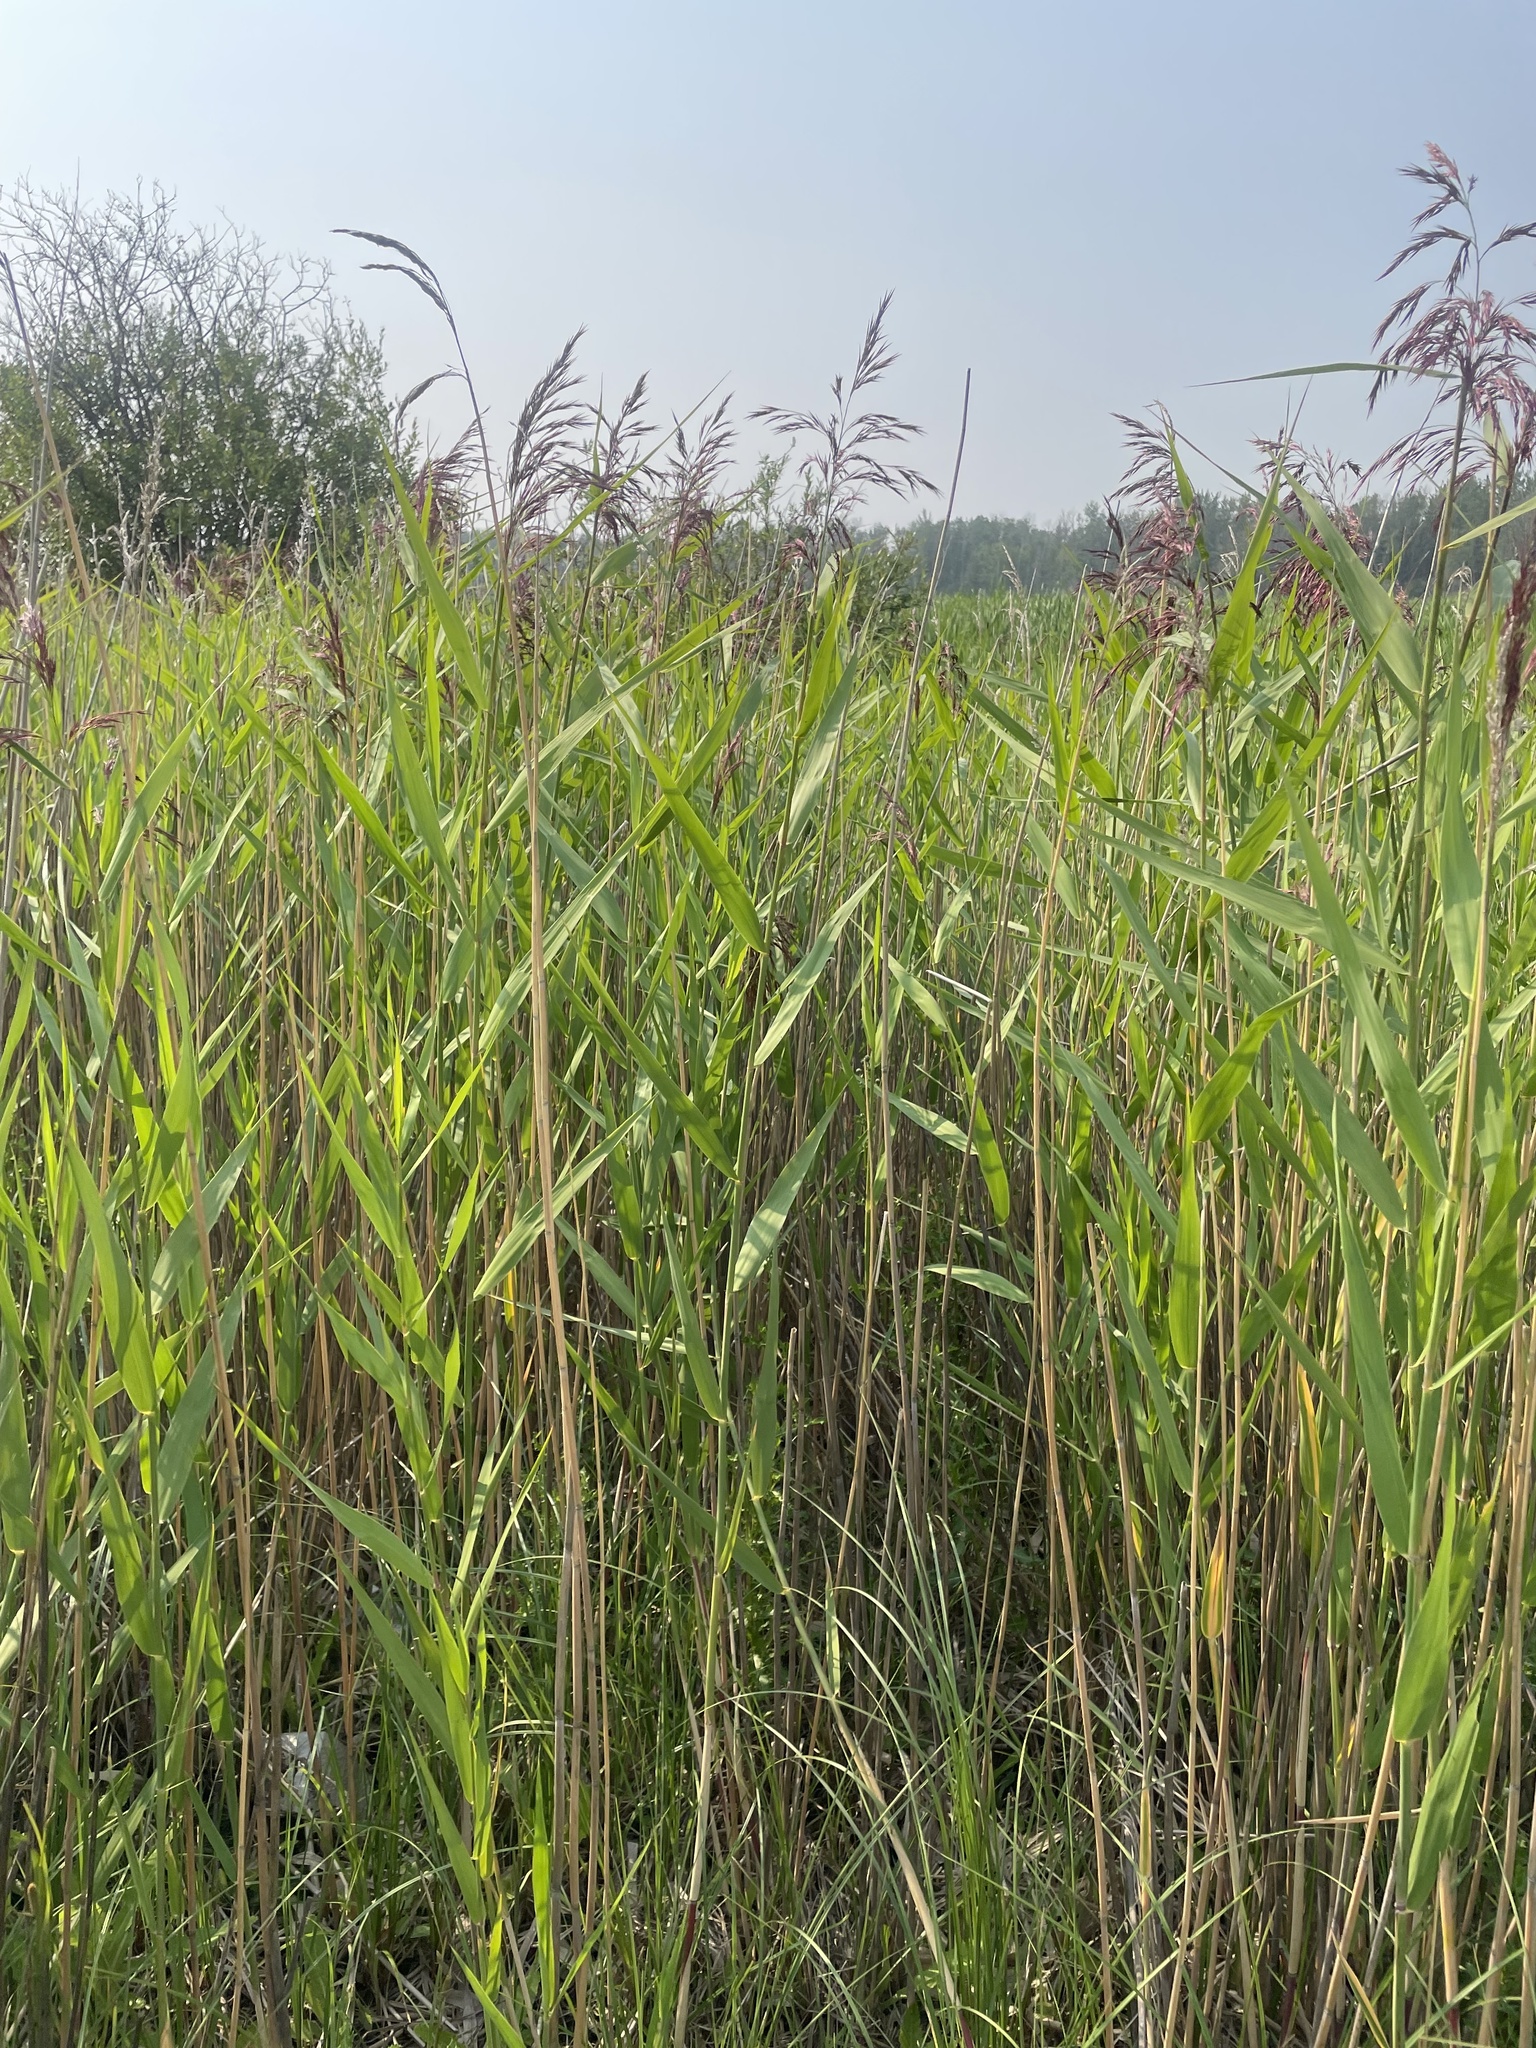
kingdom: Plantae
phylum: Tracheophyta
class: Liliopsida
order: Poales
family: Poaceae
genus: Phragmites
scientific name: Phragmites australis
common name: Common reed
